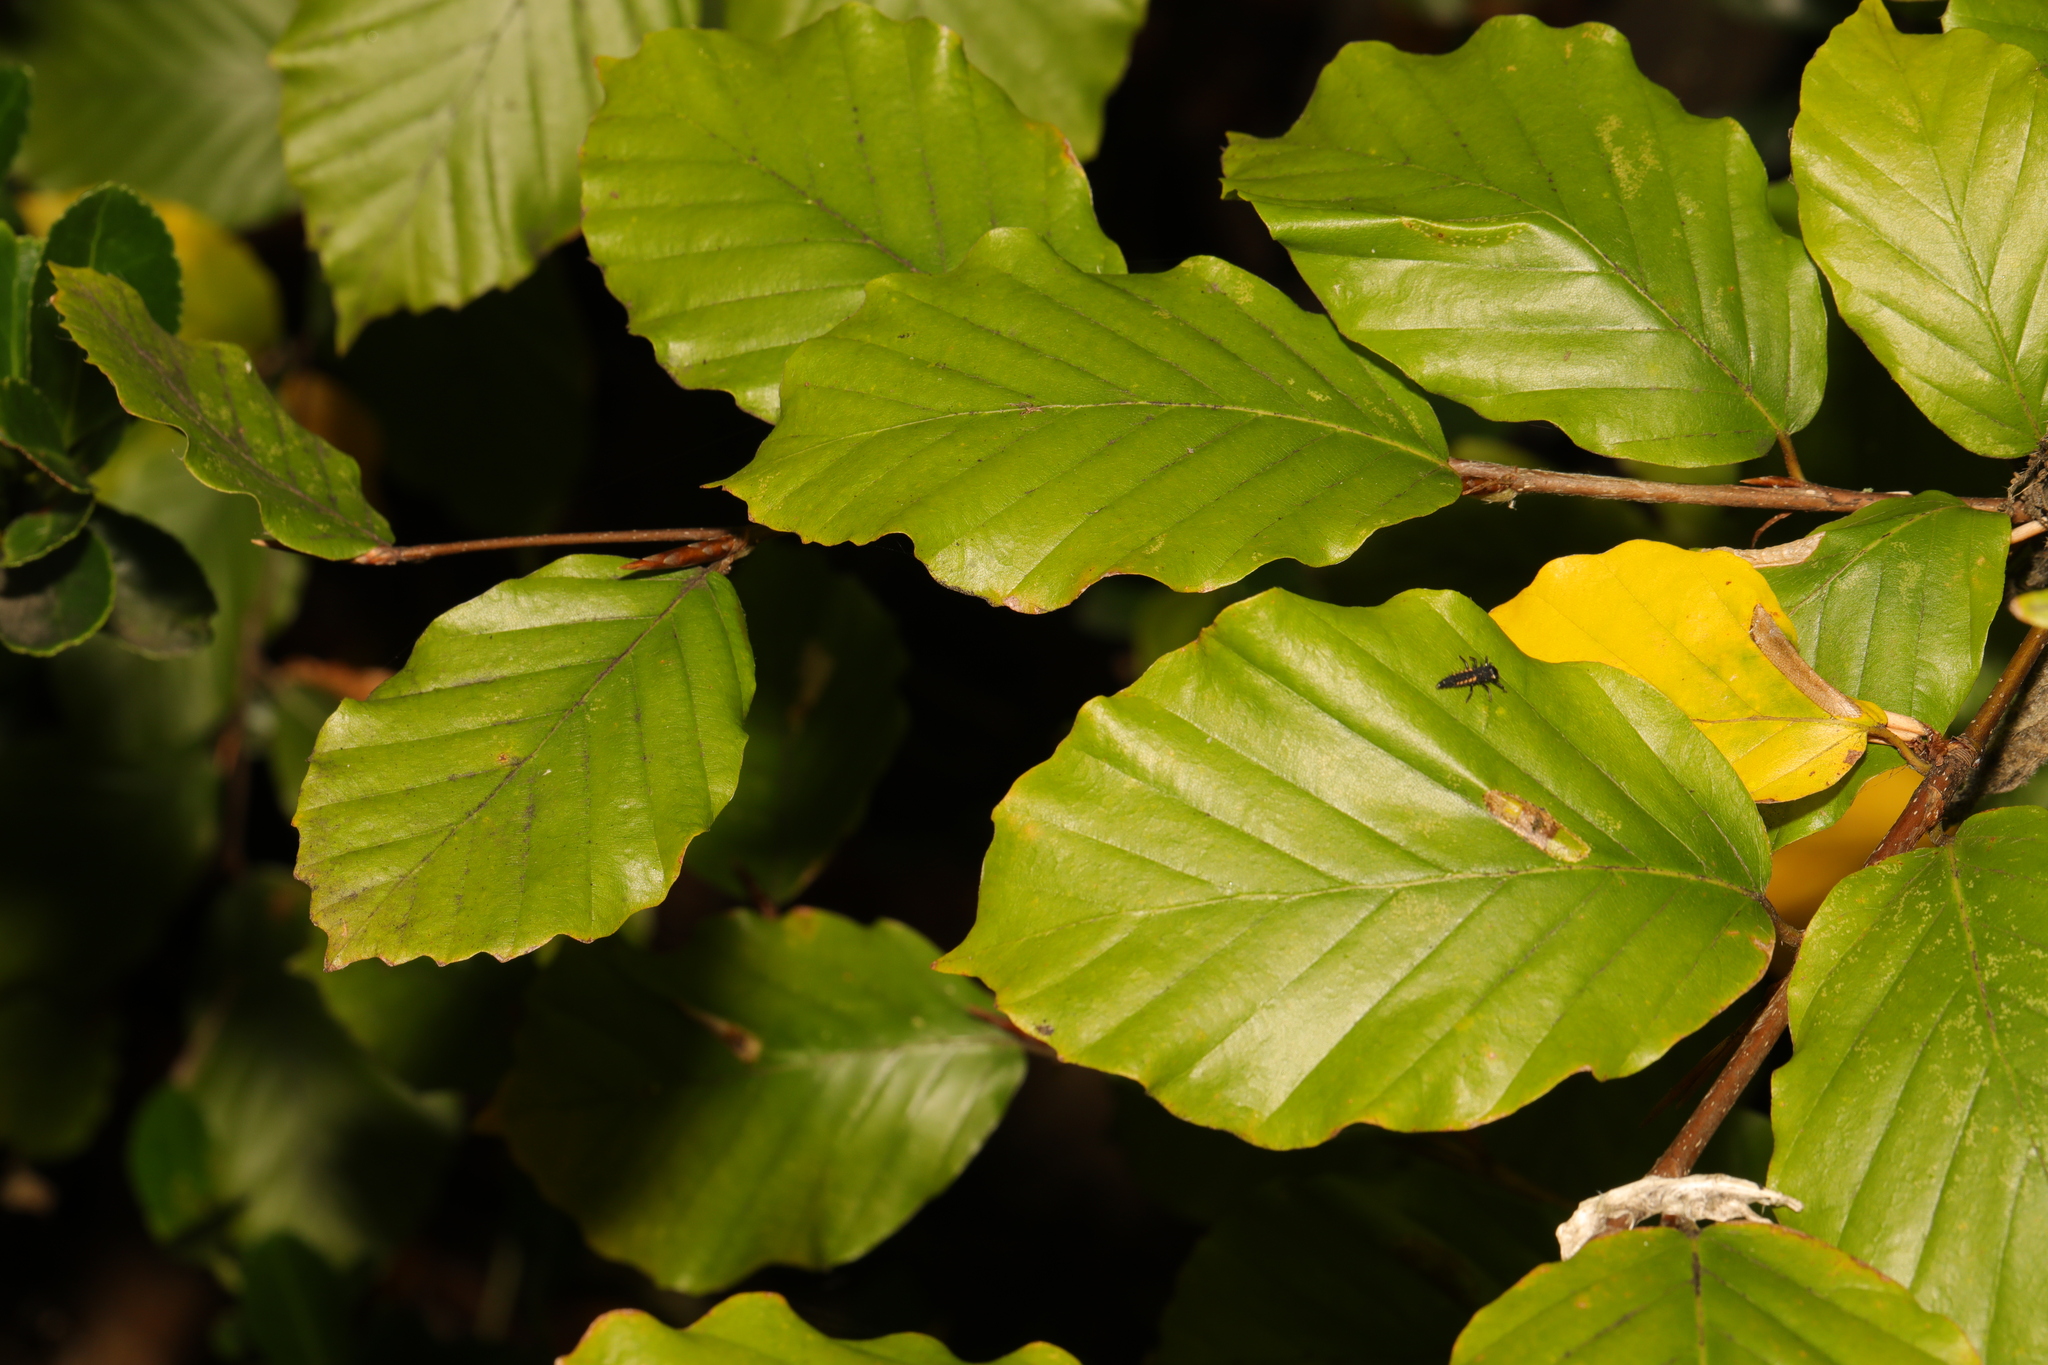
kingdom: Plantae
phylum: Tracheophyta
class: Magnoliopsida
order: Fagales
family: Fagaceae
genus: Fagus
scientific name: Fagus sylvatica
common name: Beech
